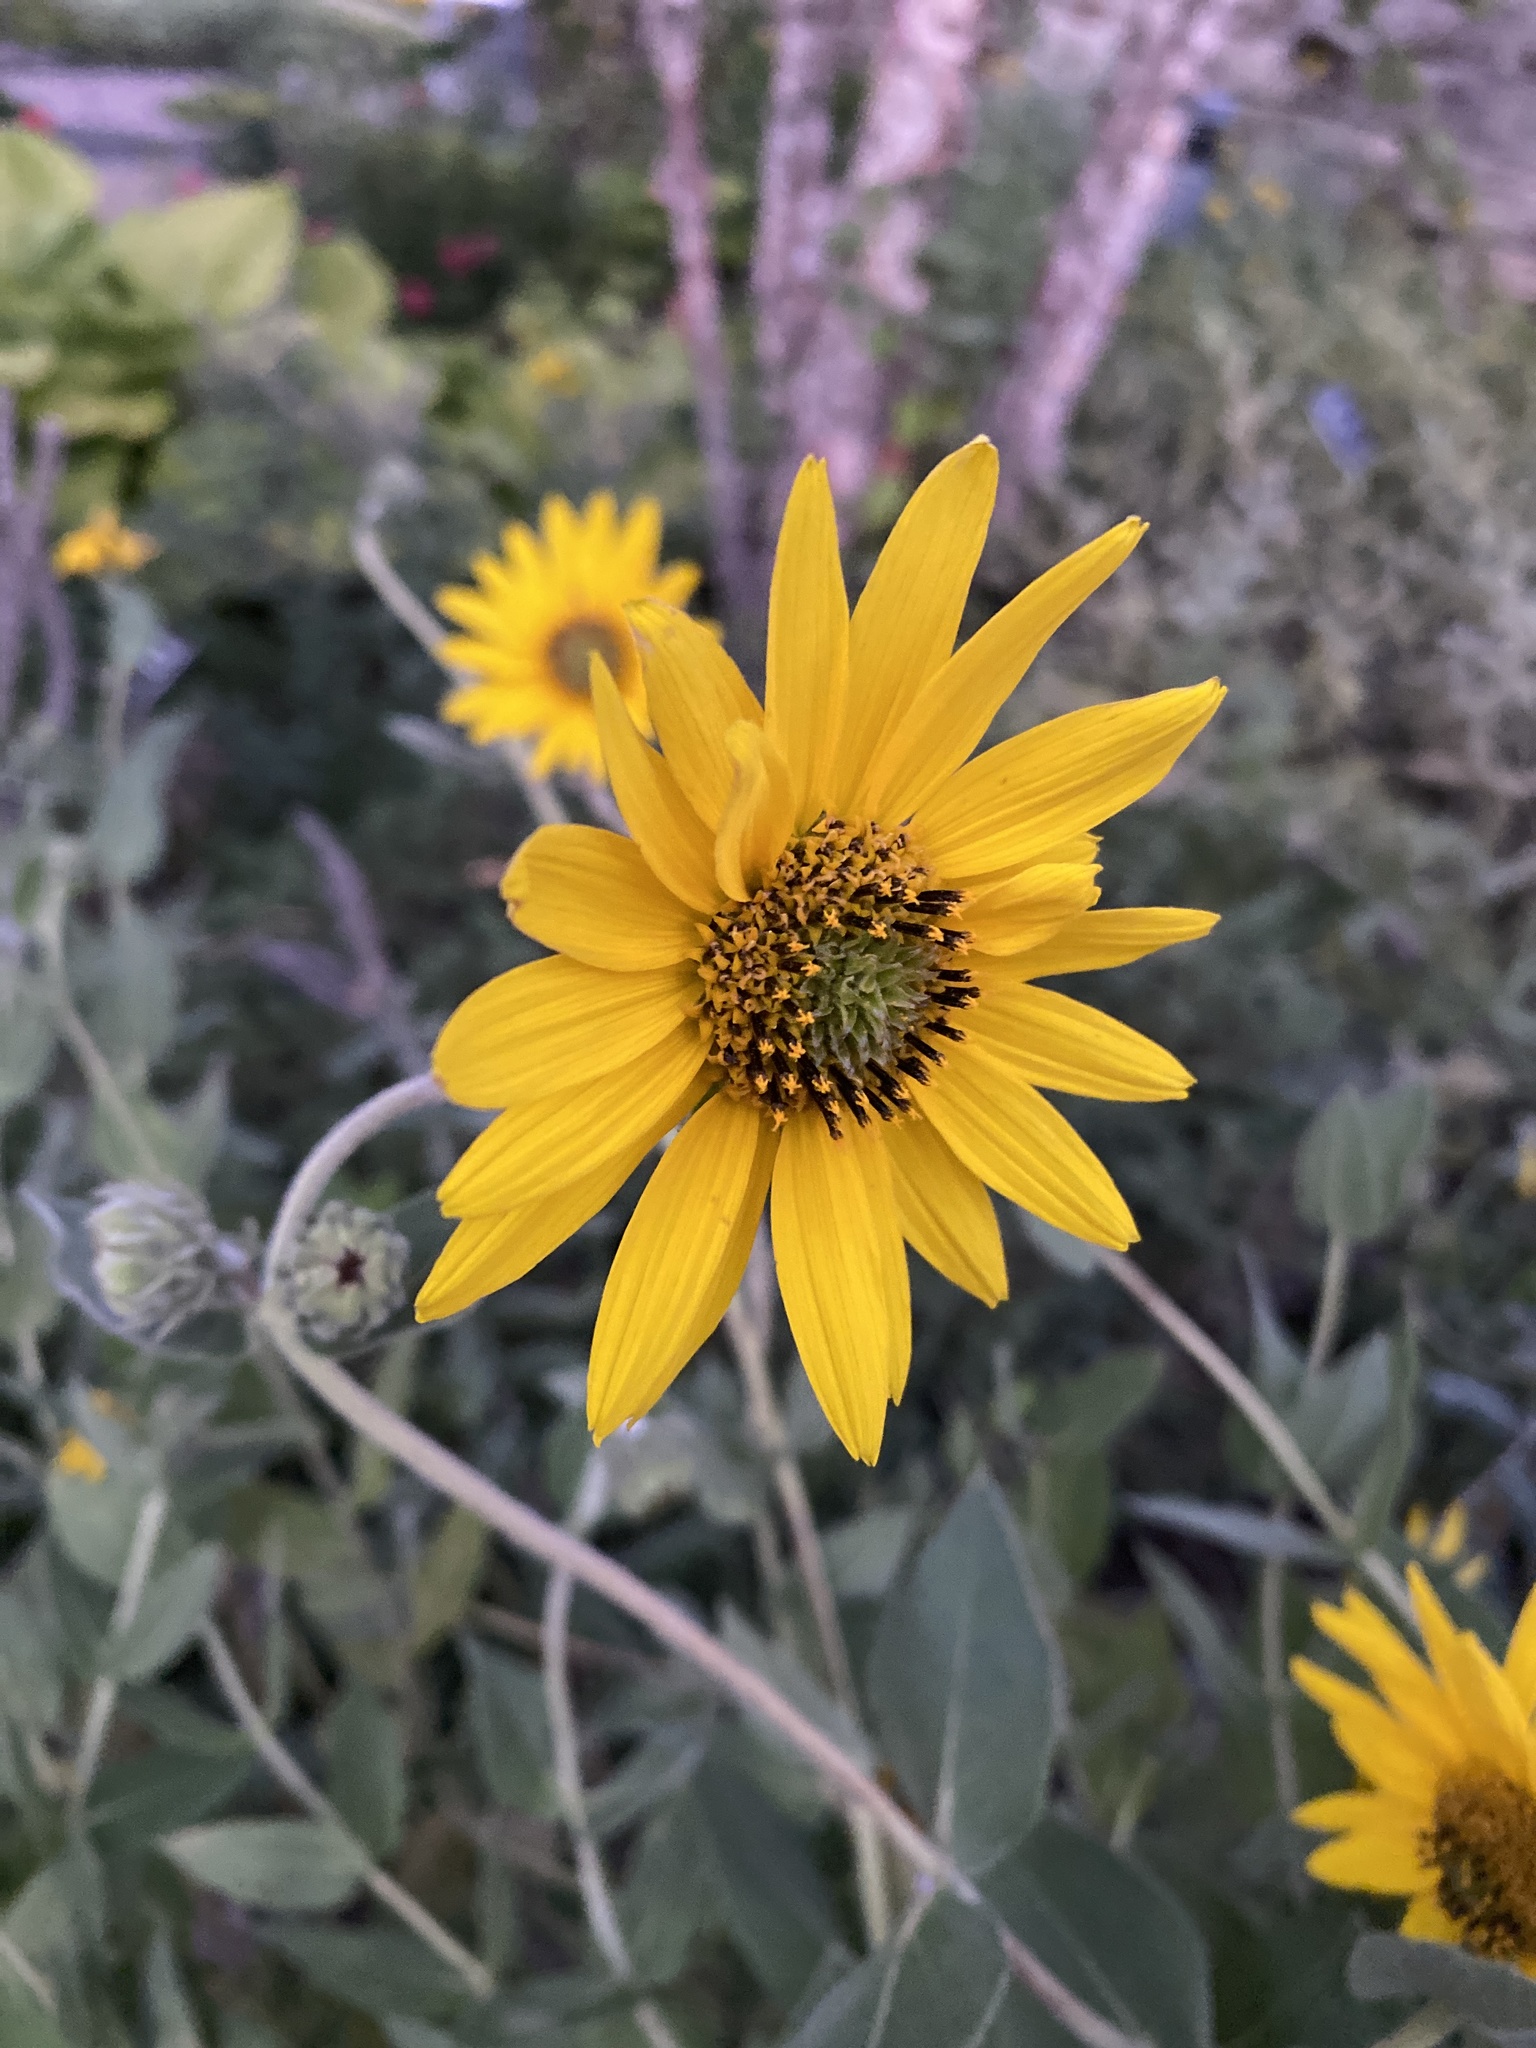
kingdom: Plantae
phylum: Tracheophyta
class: Magnoliopsida
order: Asterales
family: Asteraceae
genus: Helianthus
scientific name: Helianthus mollis
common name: Ashy sunflower
